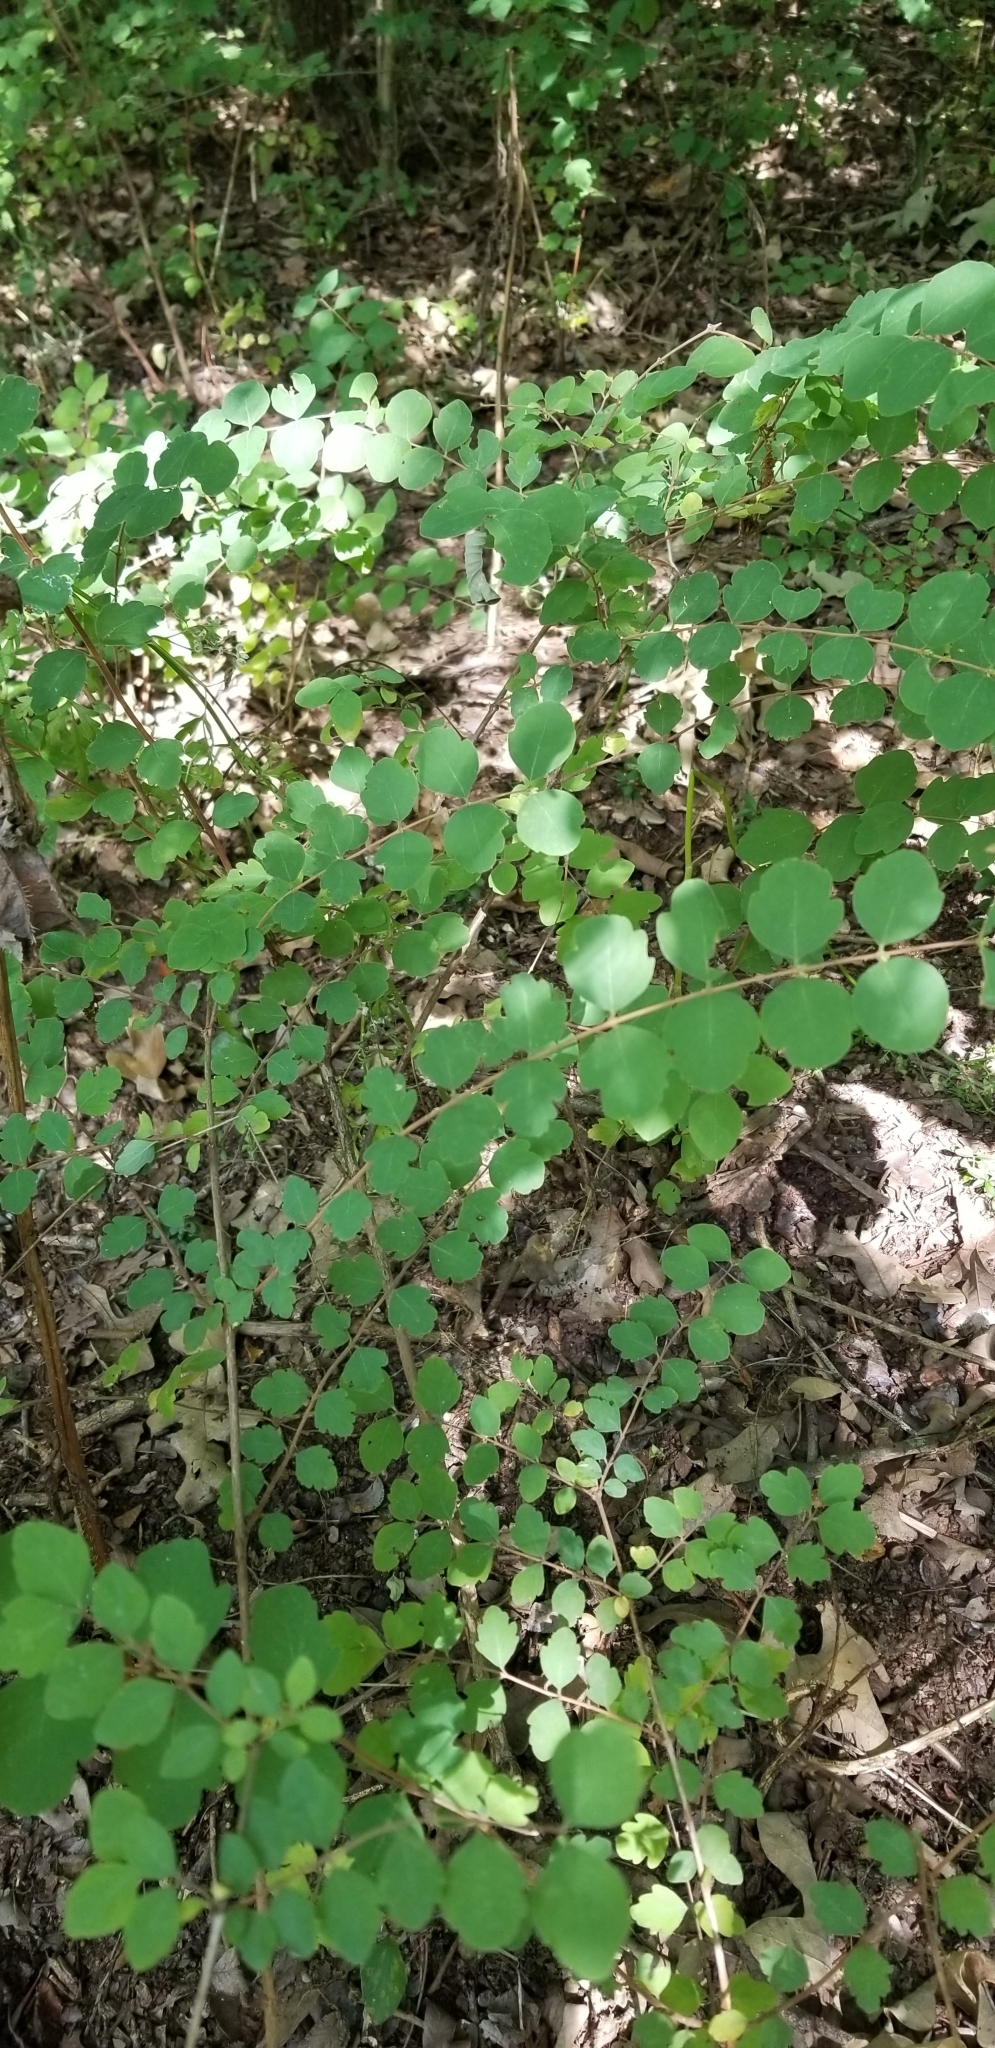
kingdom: Plantae
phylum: Tracheophyta
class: Magnoliopsida
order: Dipsacales
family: Caprifoliaceae
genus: Symphoricarpos
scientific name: Symphoricarpos orbiculatus
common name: Coralberry
